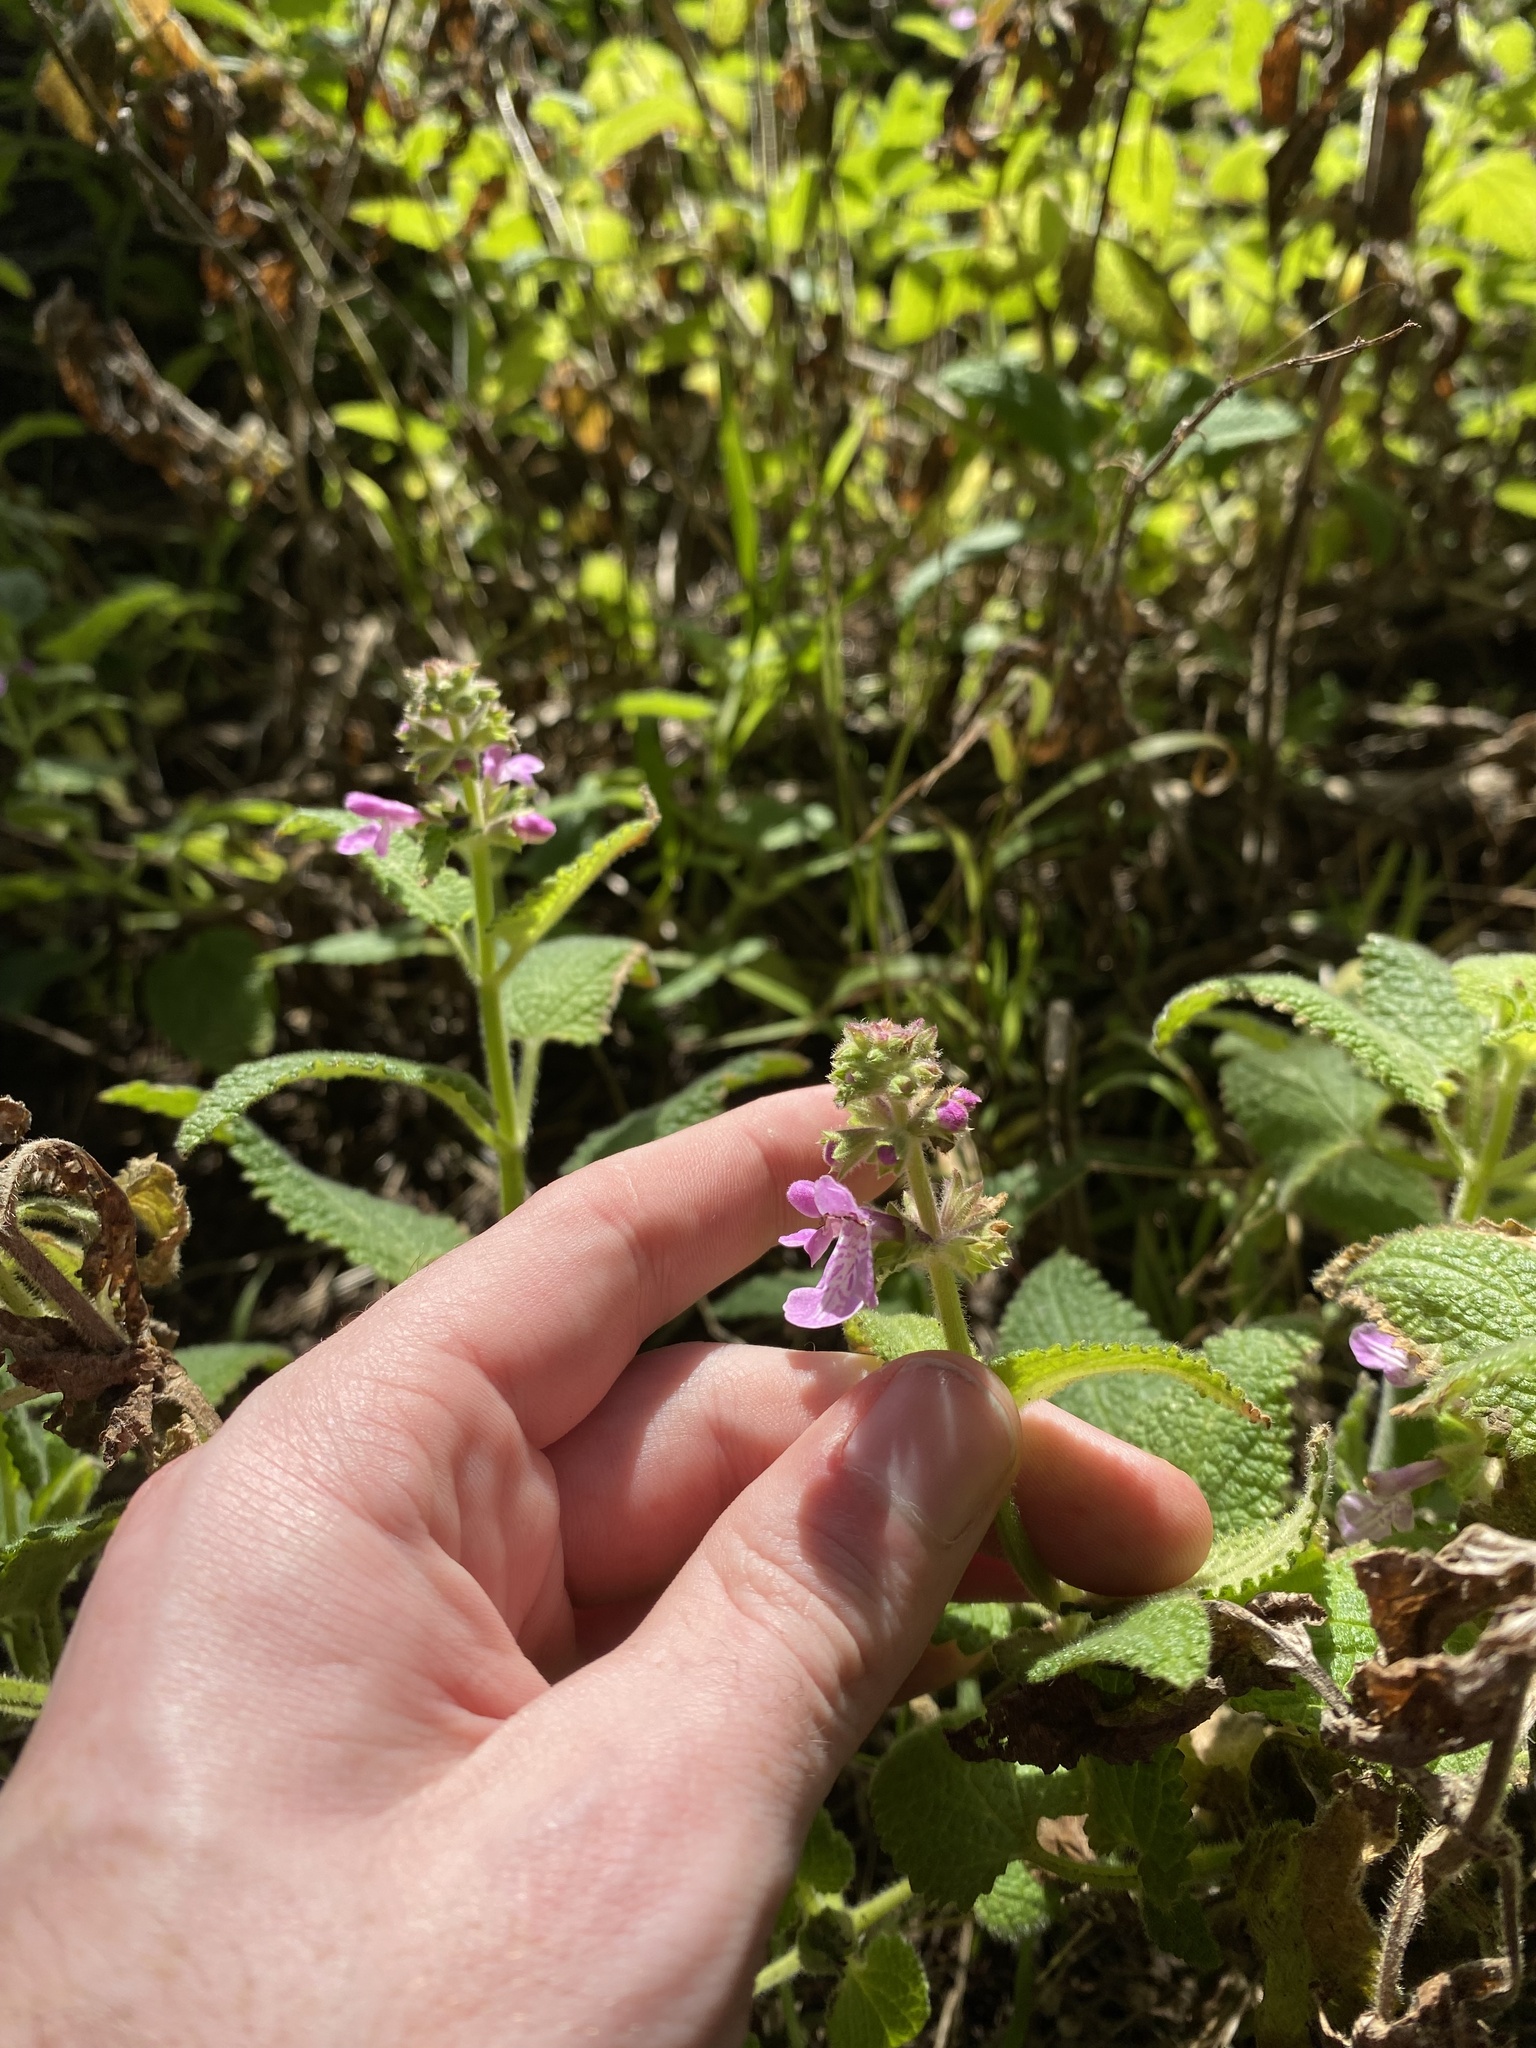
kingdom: Plantae
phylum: Tracheophyta
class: Magnoliopsida
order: Lamiales
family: Lamiaceae
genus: Stachys
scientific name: Stachys bullata
